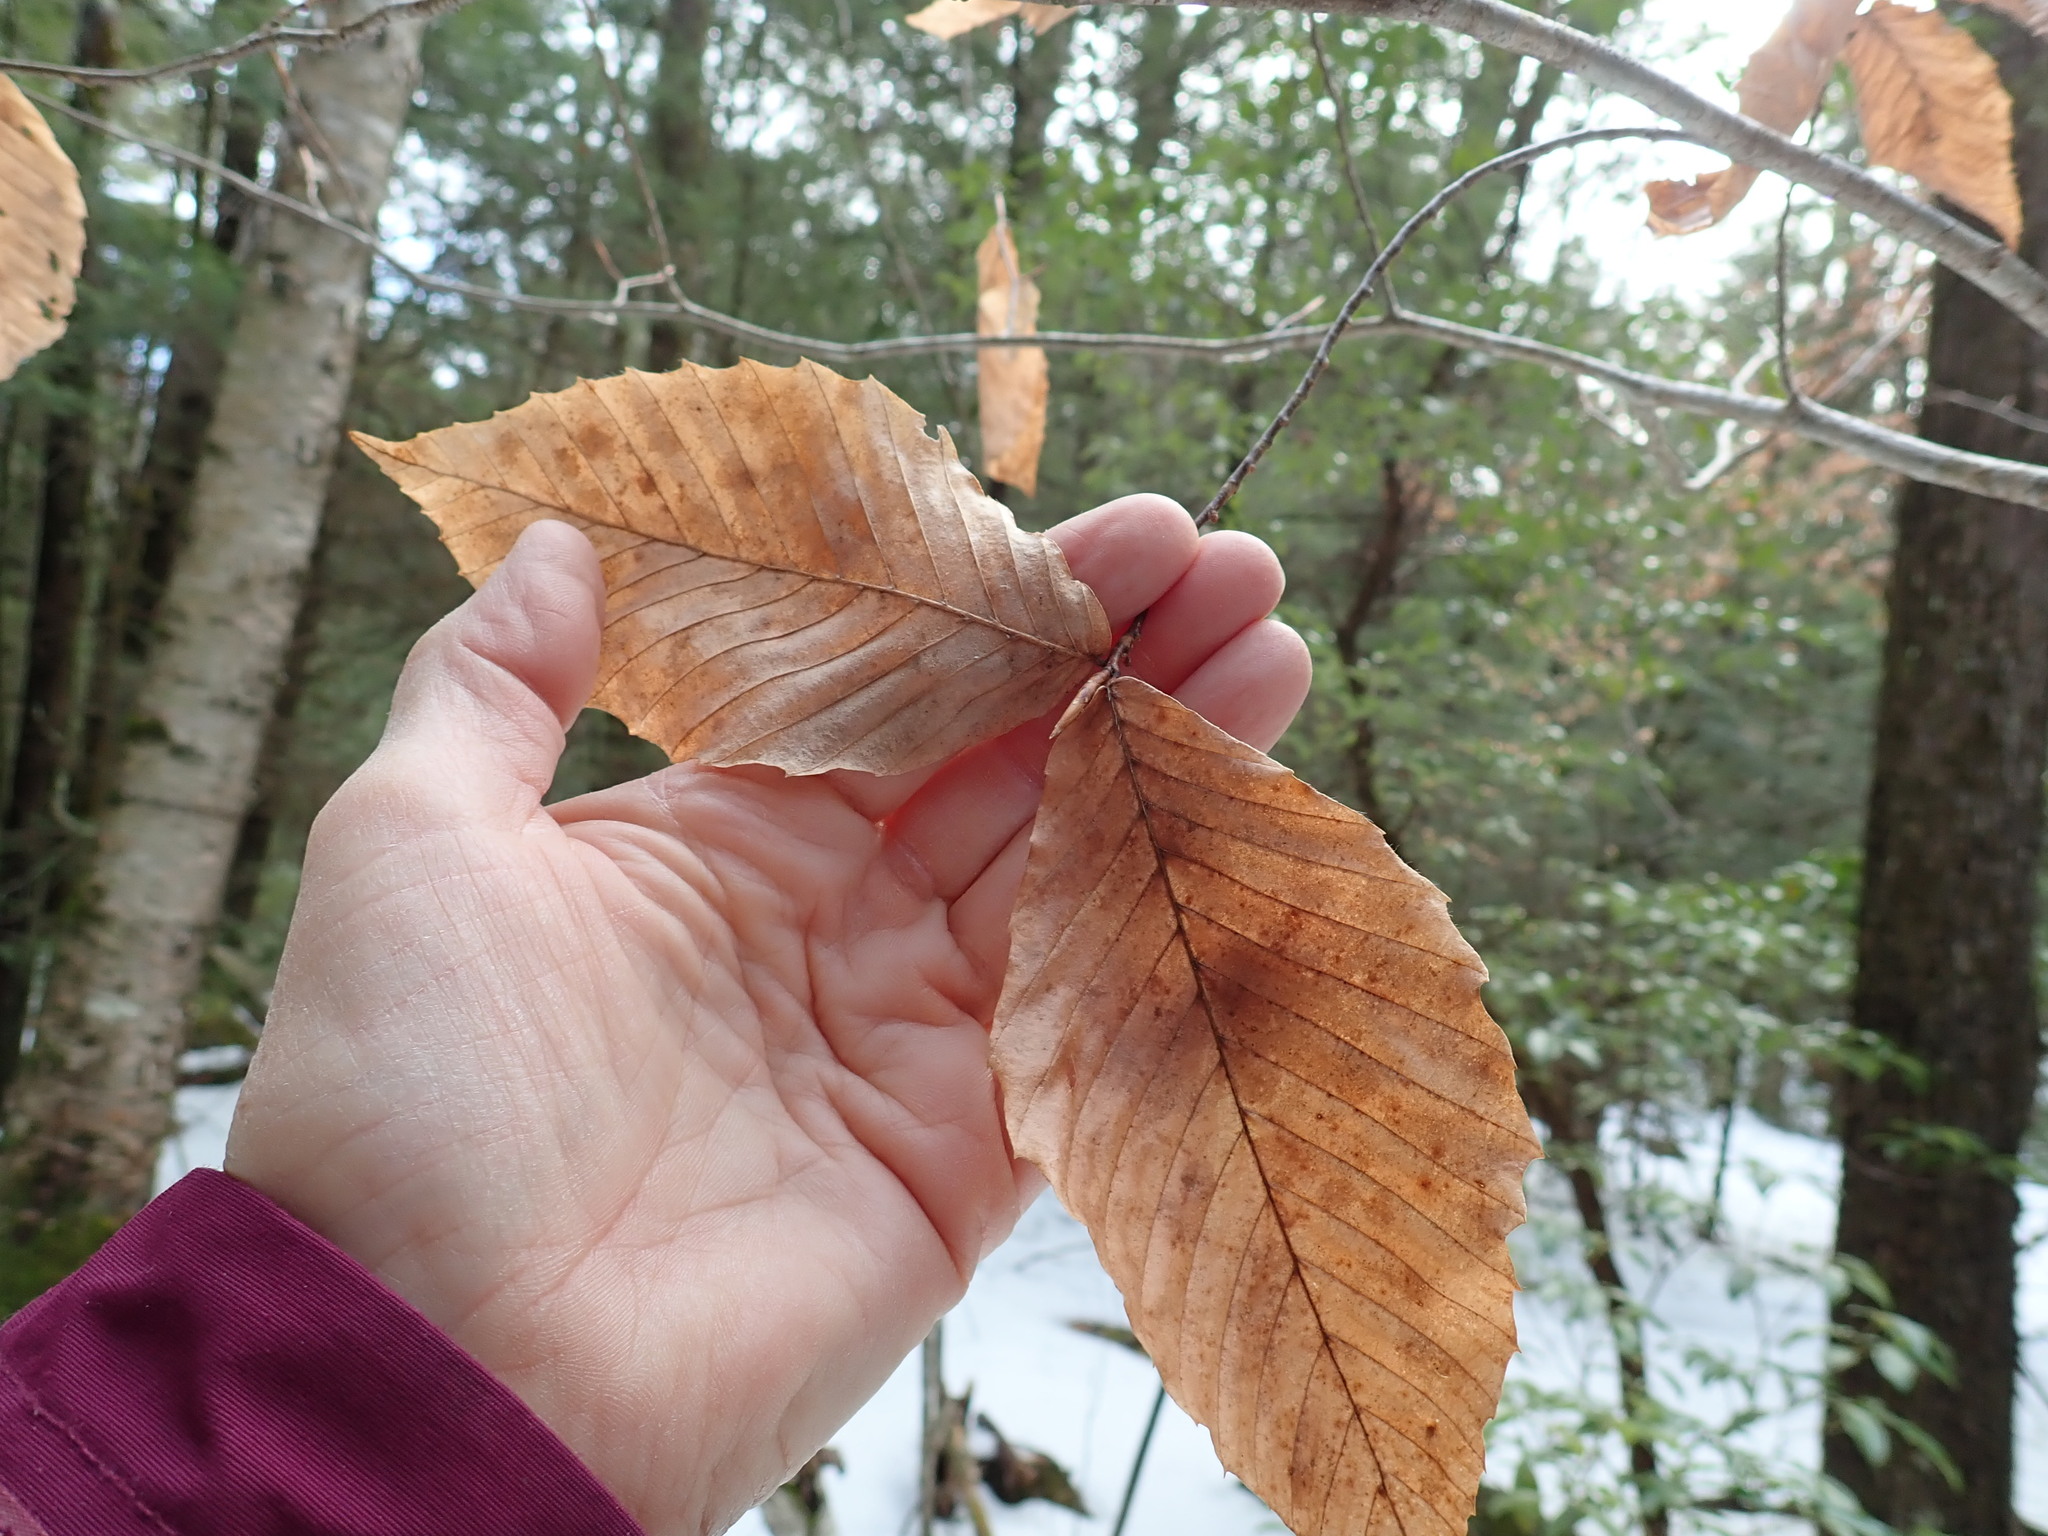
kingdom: Plantae
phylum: Tracheophyta
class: Magnoliopsida
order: Fagales
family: Fagaceae
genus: Fagus
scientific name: Fagus grandifolia
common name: American beech
